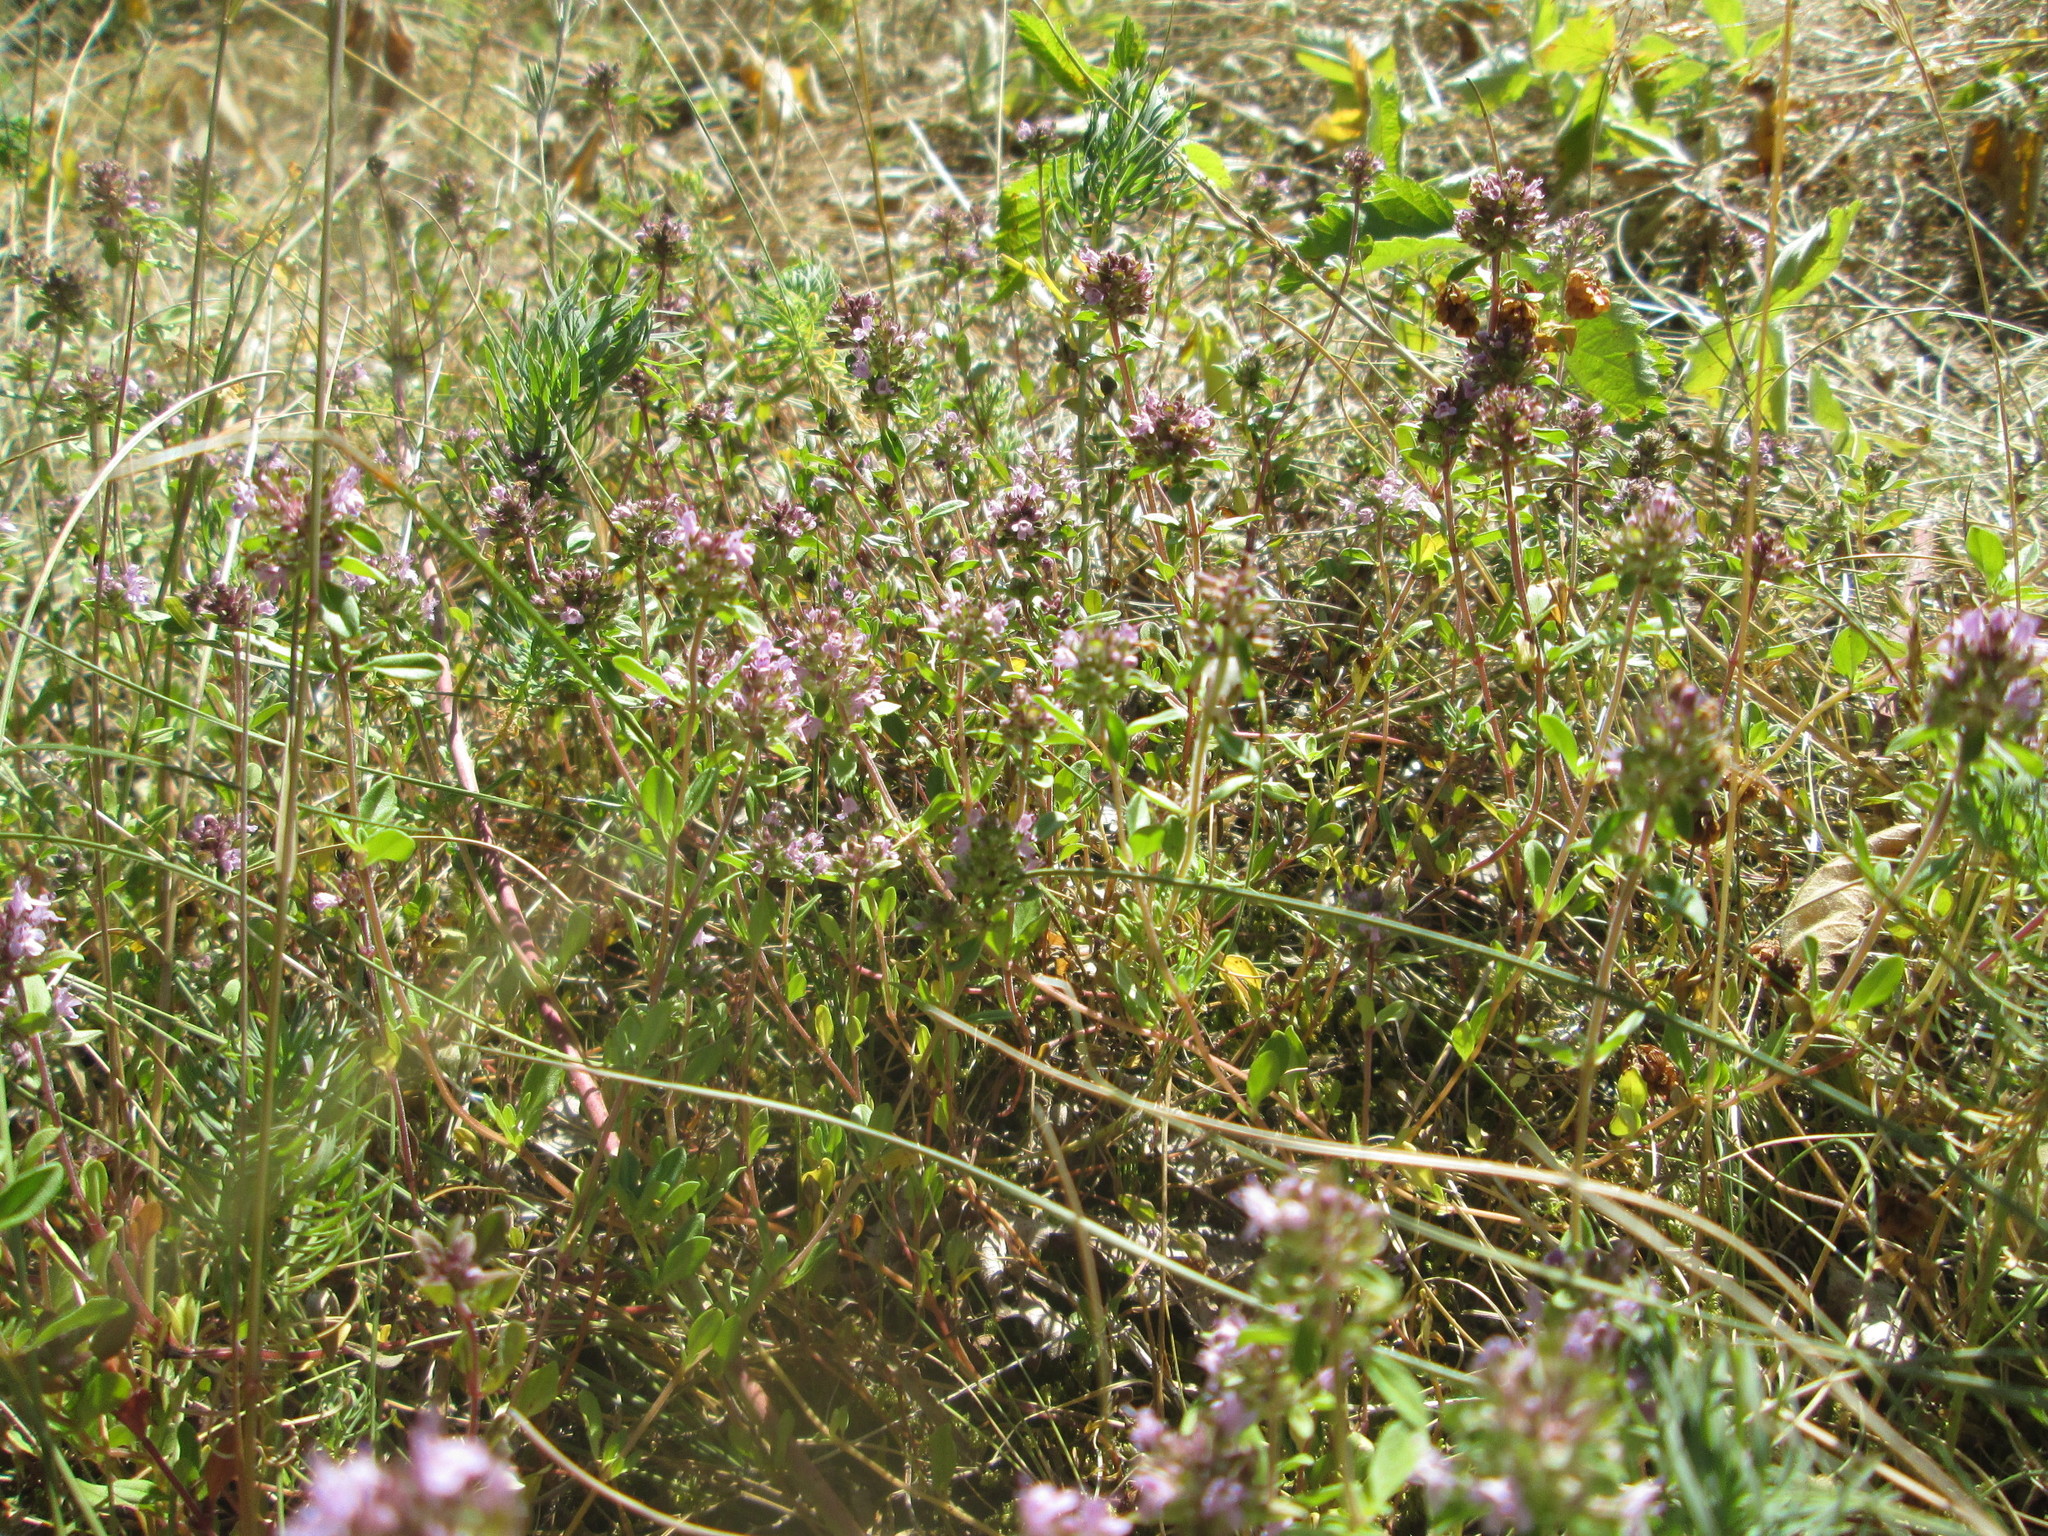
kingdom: Plantae
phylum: Tracheophyta
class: Magnoliopsida
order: Lamiales
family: Lamiaceae
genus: Thymus
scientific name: Thymus pulegioides
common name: Large thyme
